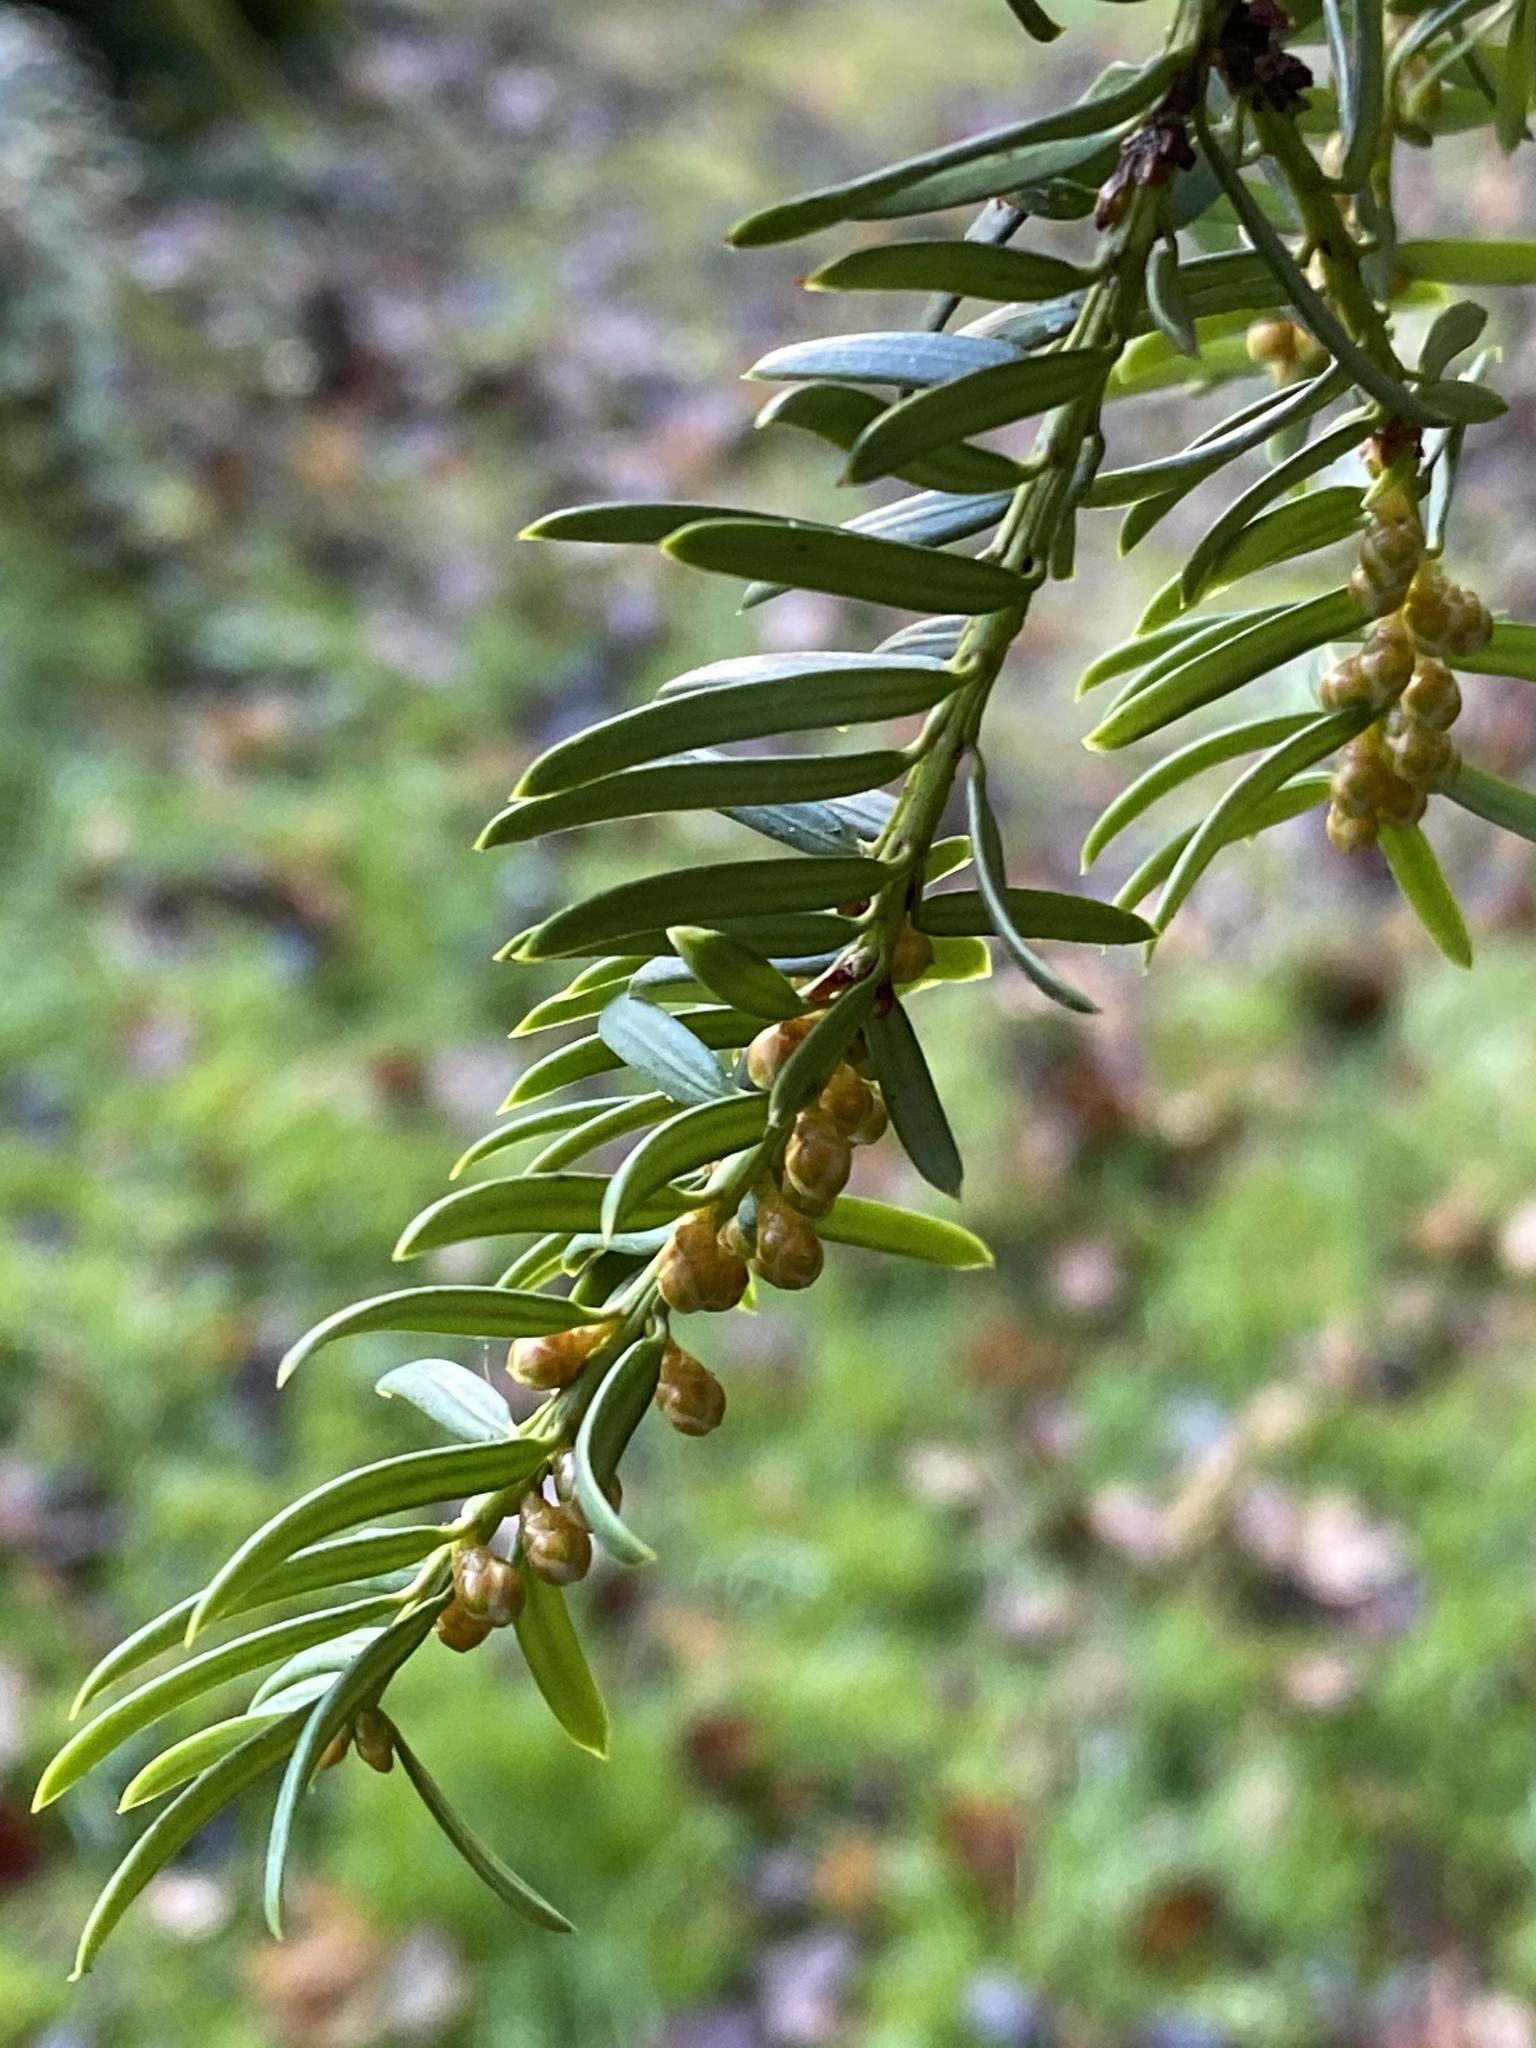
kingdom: Plantae
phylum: Tracheophyta
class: Pinopsida
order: Pinales
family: Taxaceae
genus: Taxus
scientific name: Taxus baccata
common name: Yew
